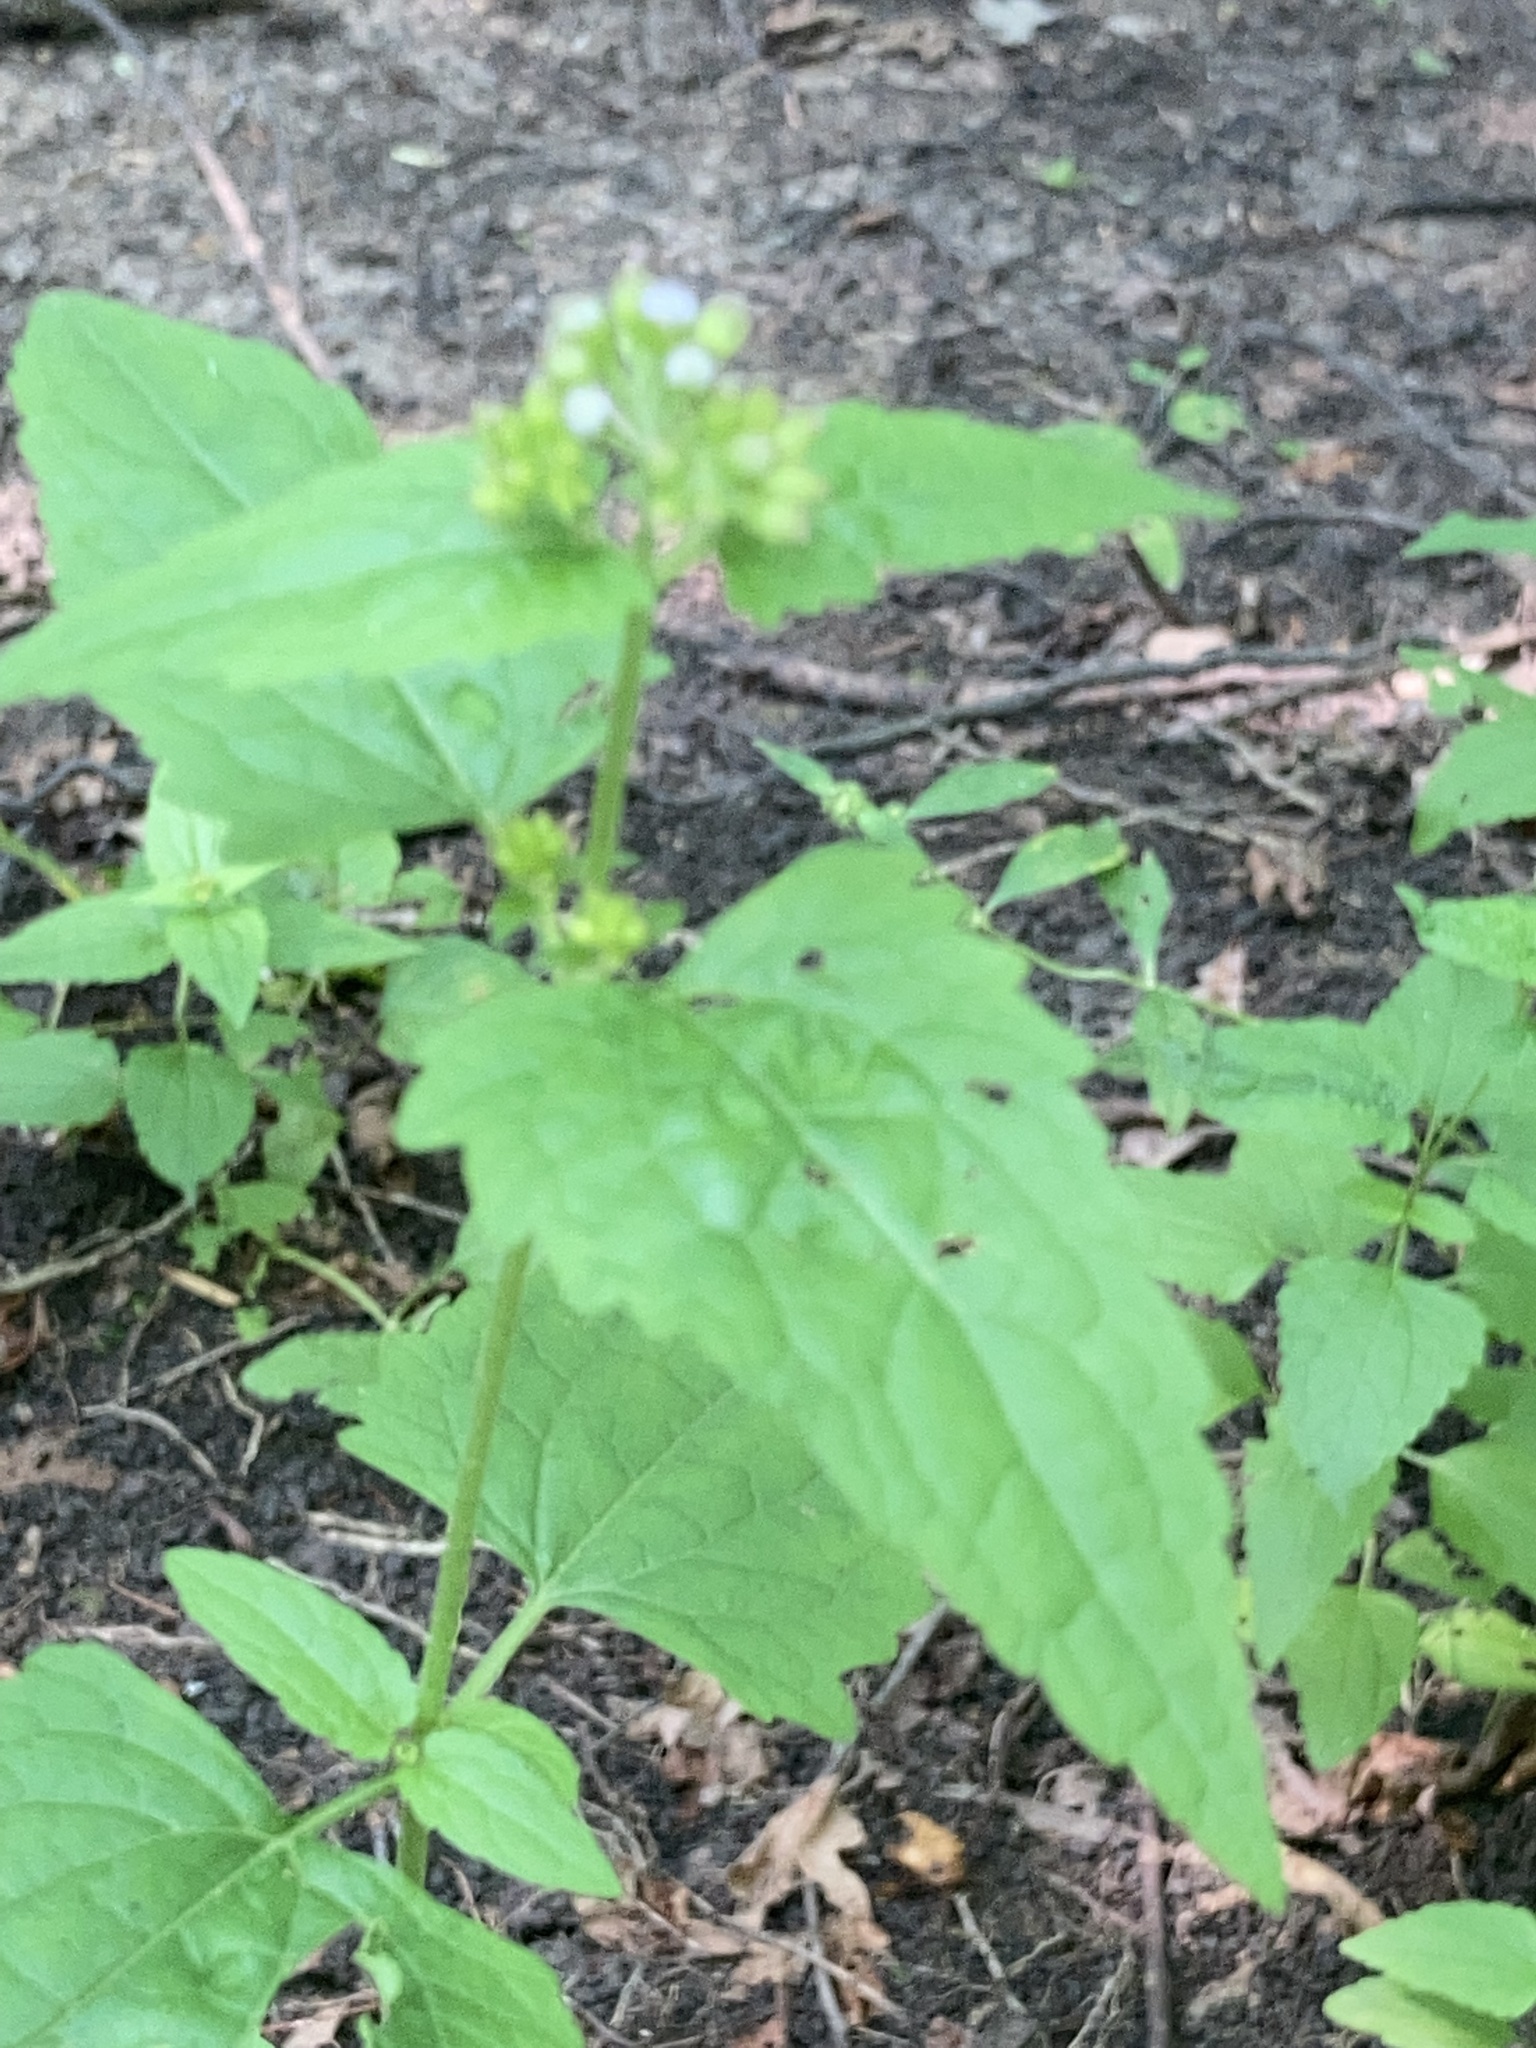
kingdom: Plantae
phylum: Tracheophyta
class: Magnoliopsida
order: Asterales
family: Asteraceae
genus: Conoclinium
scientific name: Conoclinium coelestinum
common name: Blue mistflower
